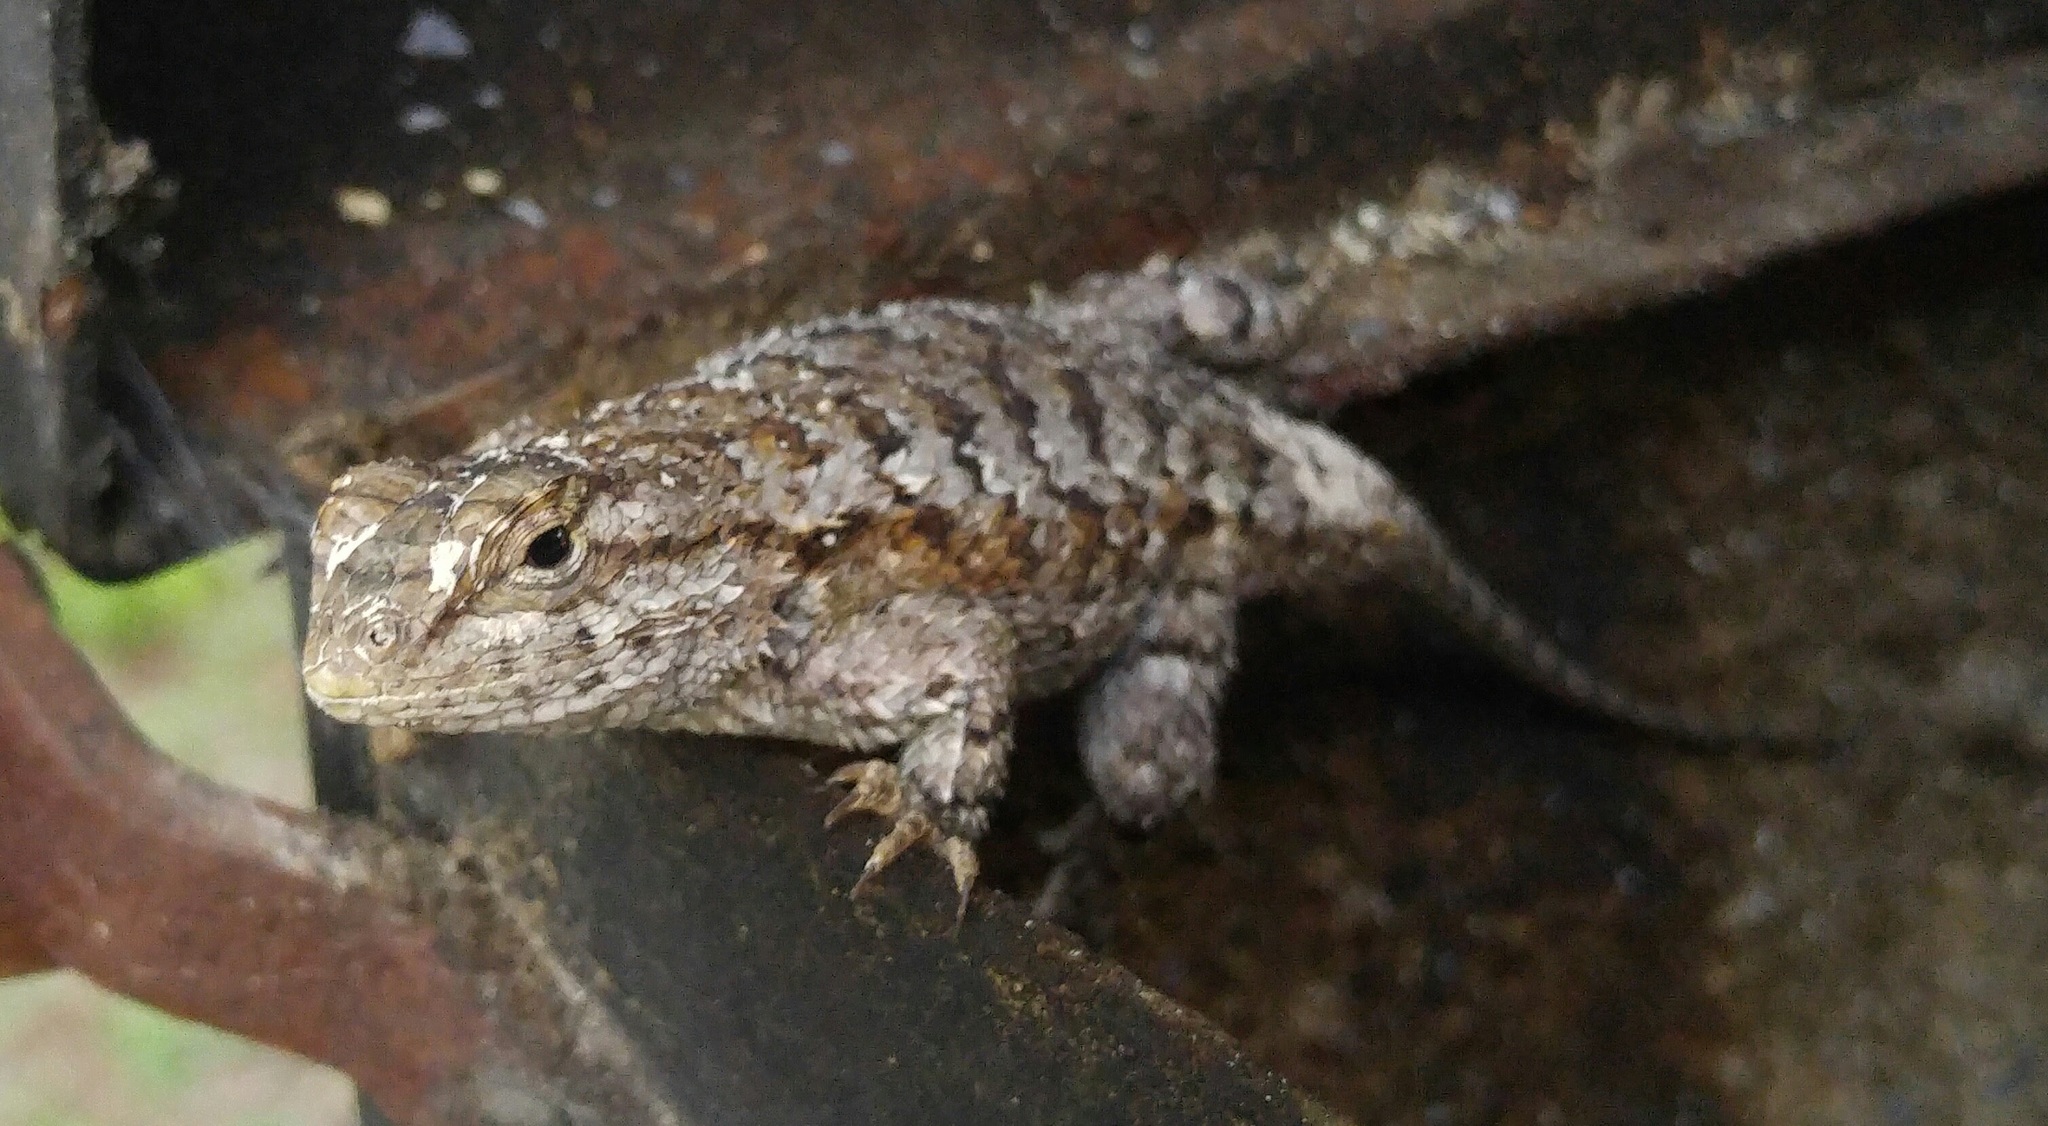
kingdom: Animalia
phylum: Chordata
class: Squamata
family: Phrynosomatidae
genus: Sceloporus
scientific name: Sceloporus undulatus
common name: Eastern fence lizard
